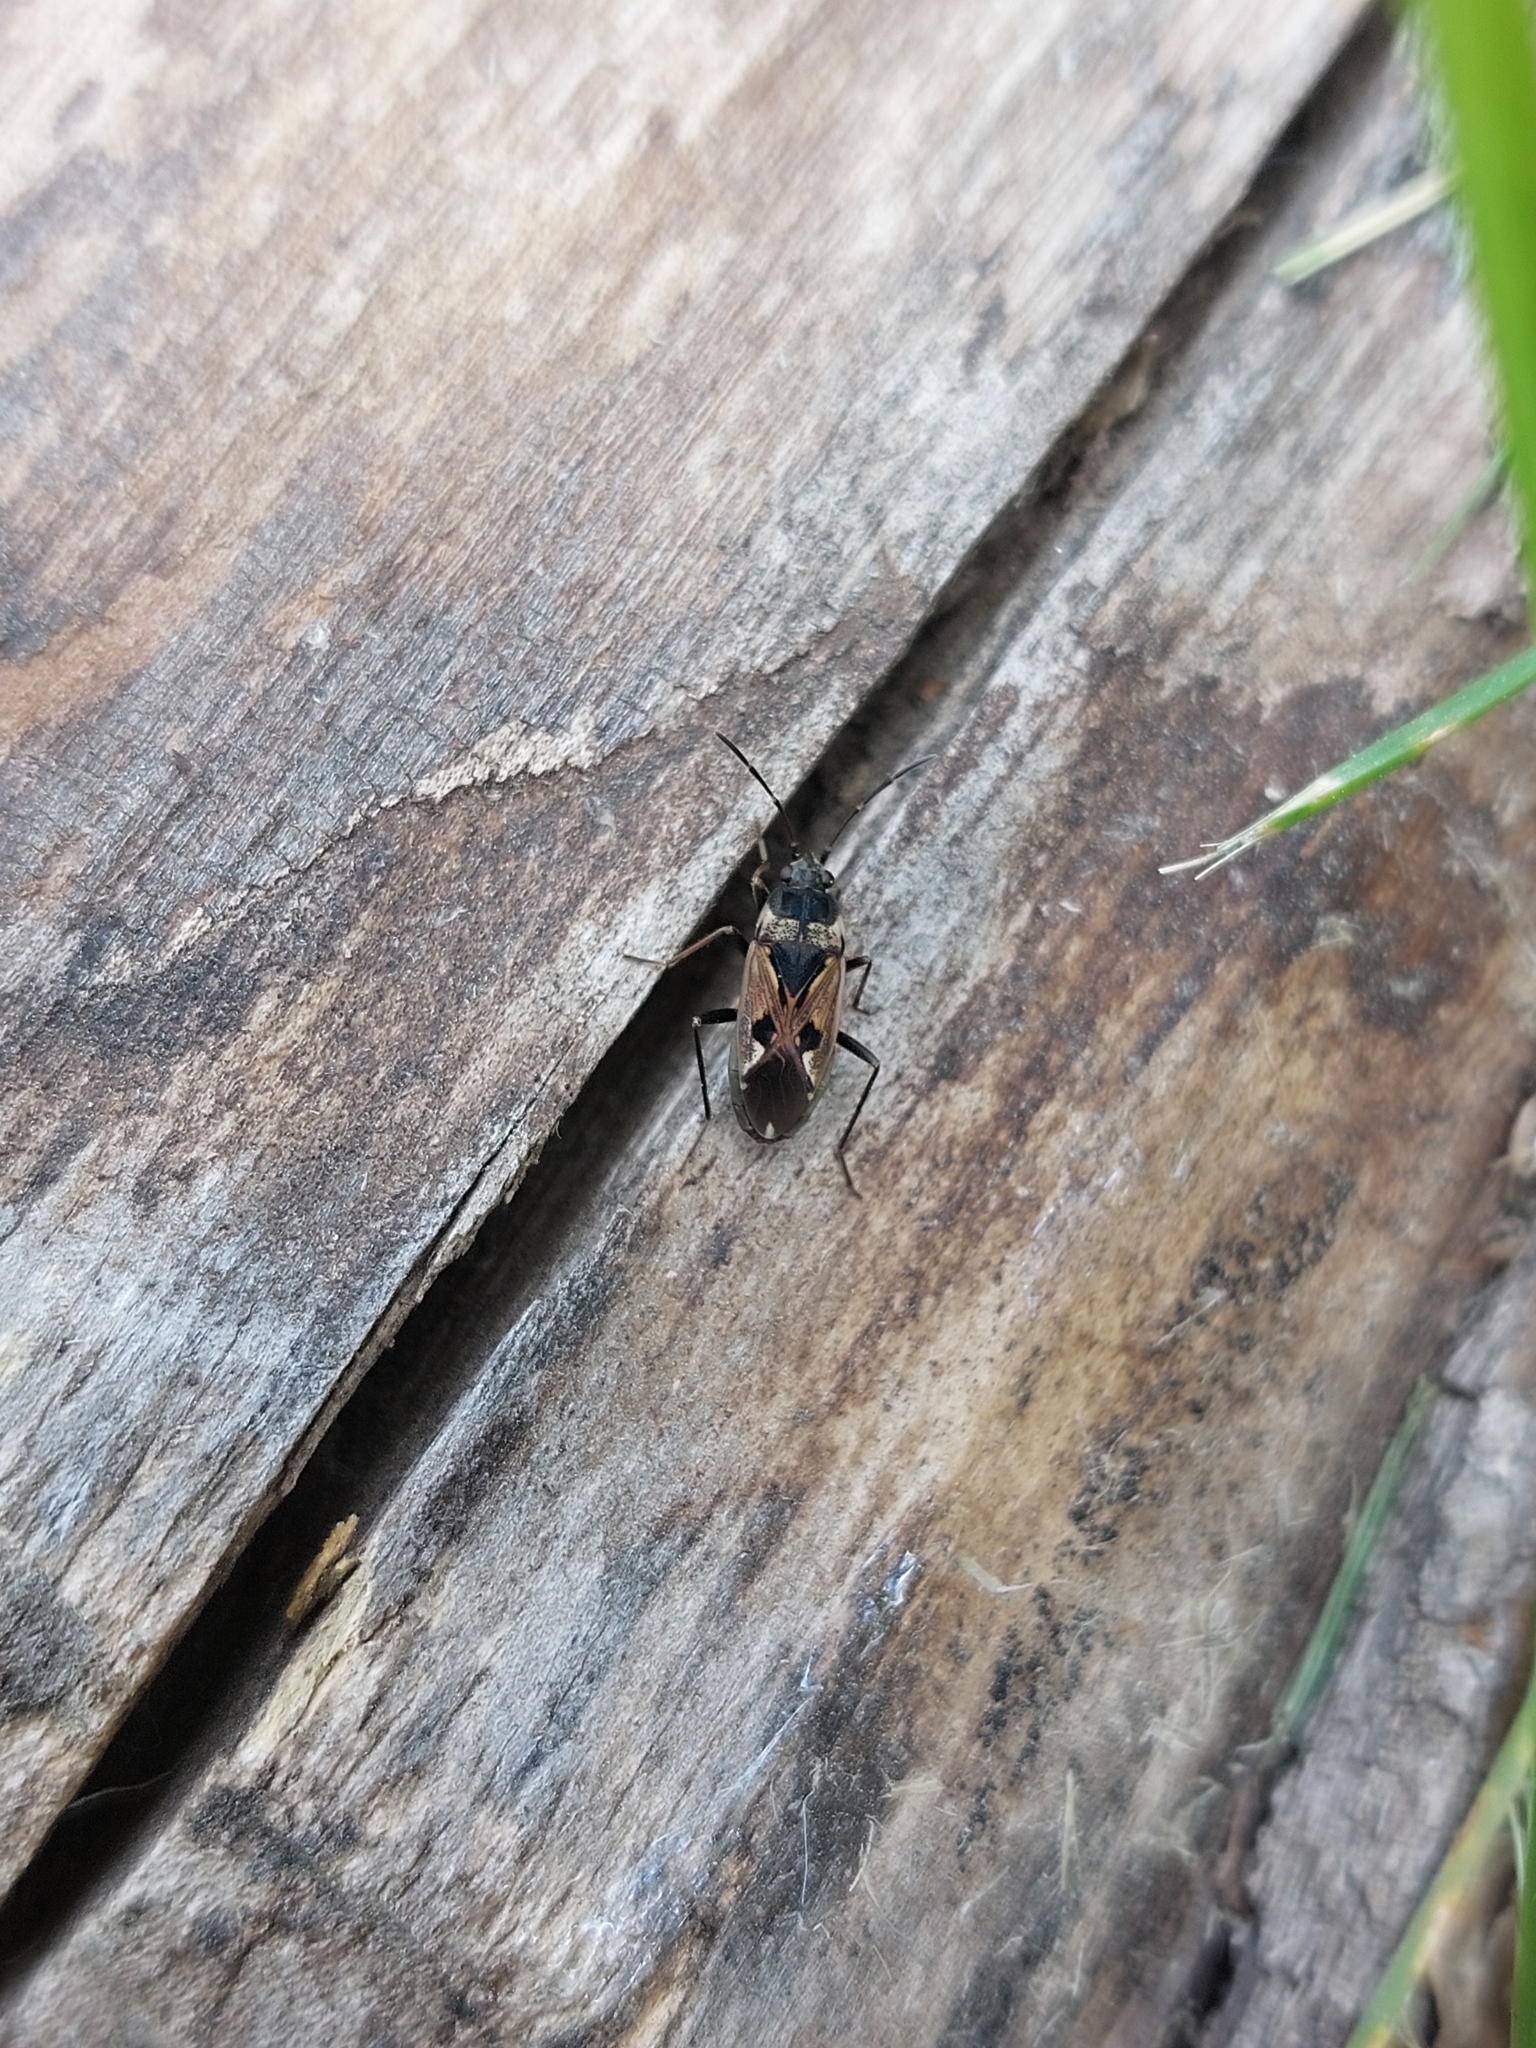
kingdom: Animalia
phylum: Arthropoda
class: Insecta
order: Hemiptera
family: Rhyparochromidae
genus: Rhyparochromus
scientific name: Rhyparochromus vulgaris
